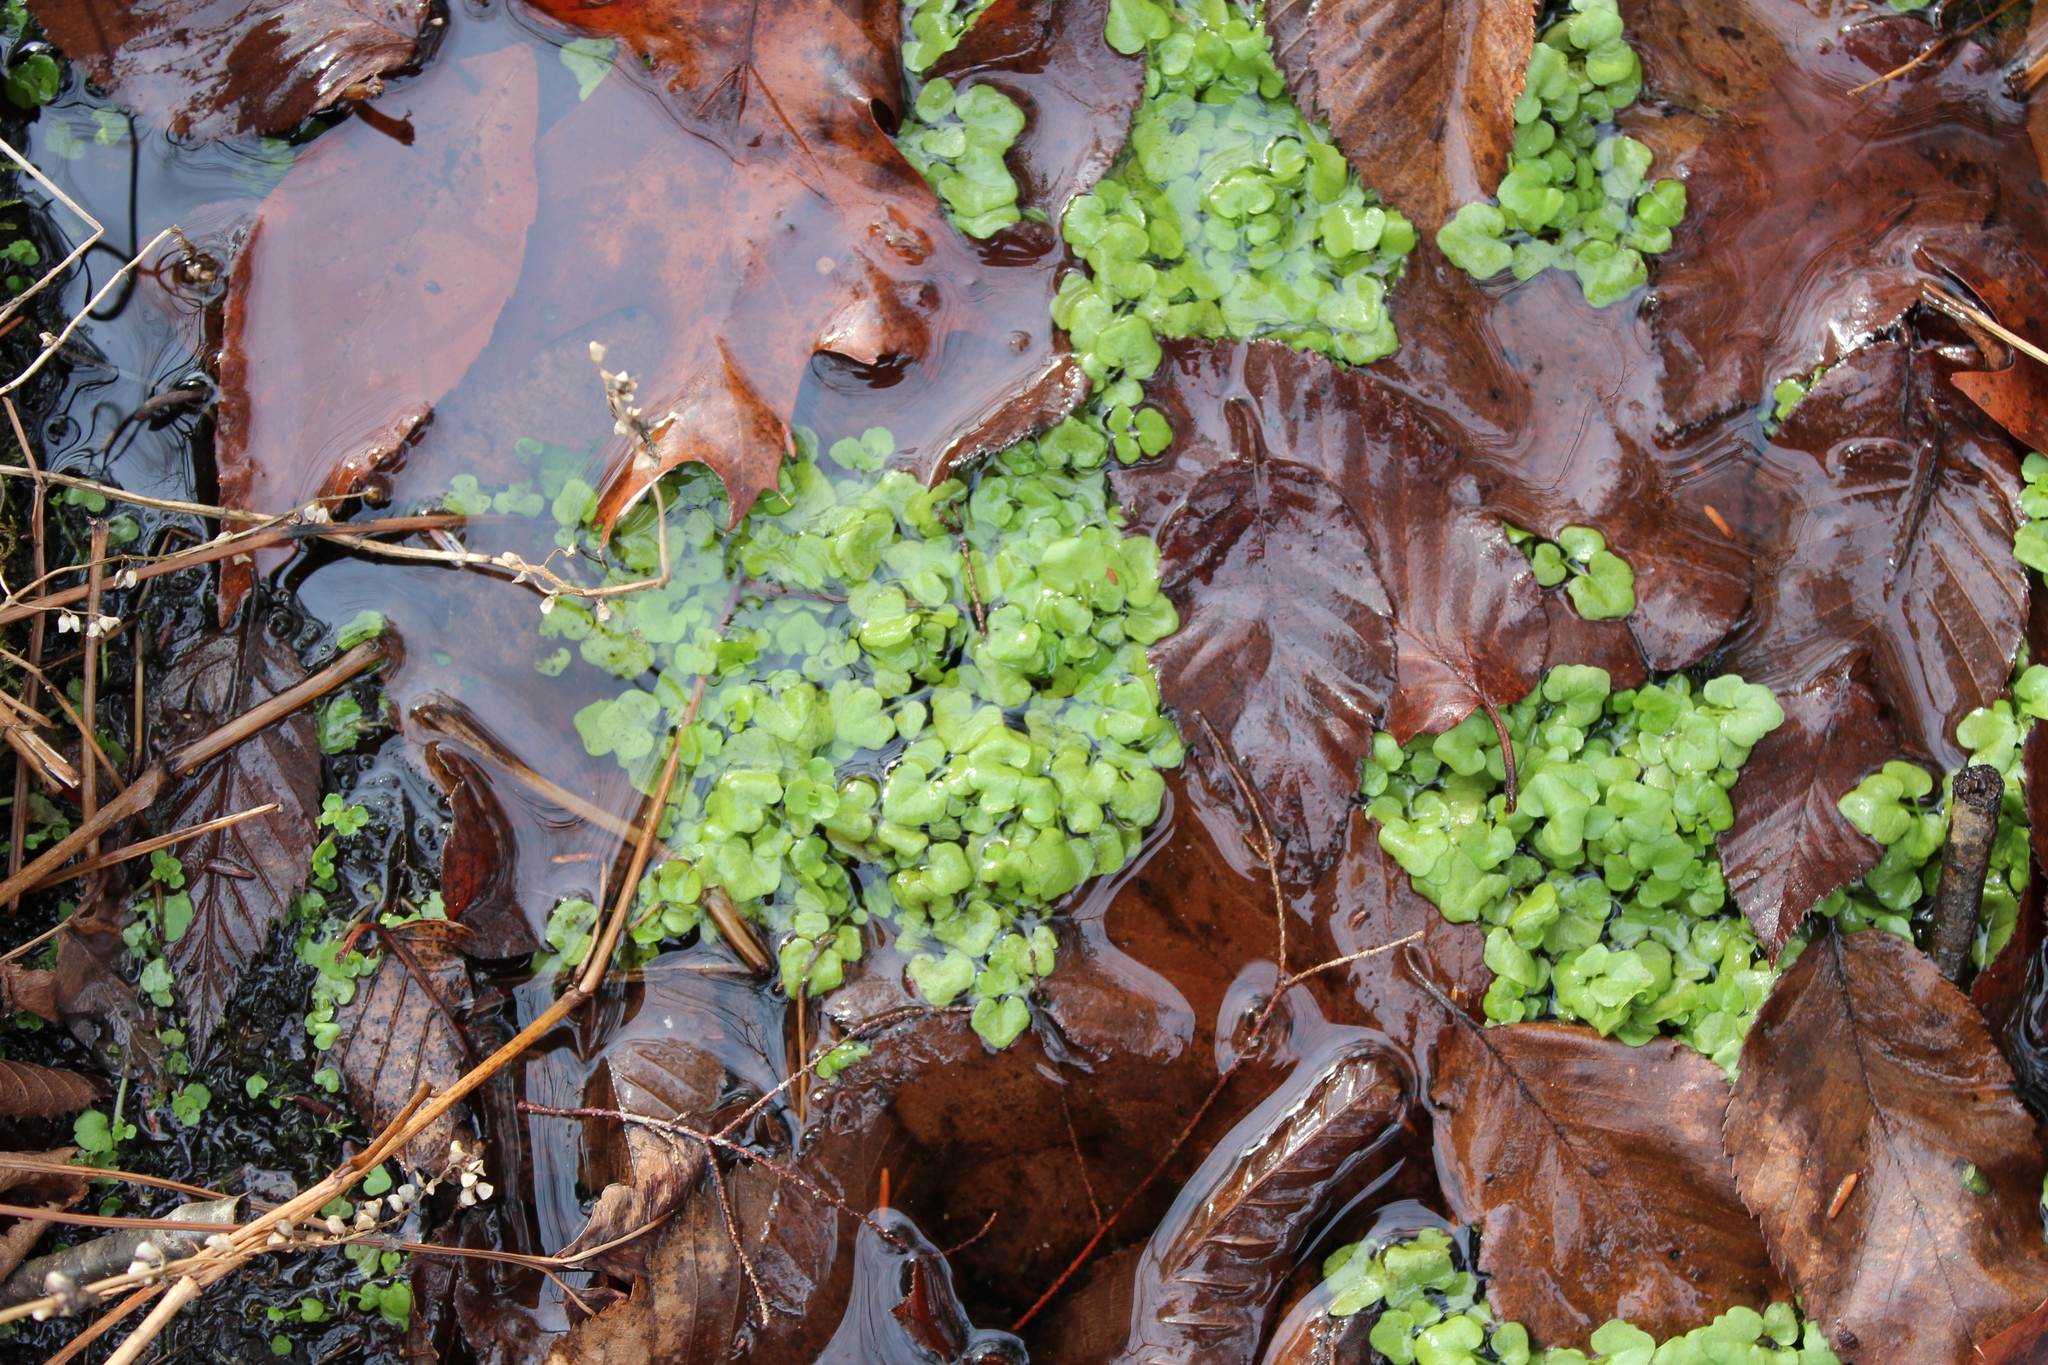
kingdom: Plantae
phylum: Tracheophyta
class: Magnoliopsida
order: Brassicales
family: Brassicaceae
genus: Cardamine
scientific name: Cardamine pensylvanica
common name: Pennsylvania bittercress
